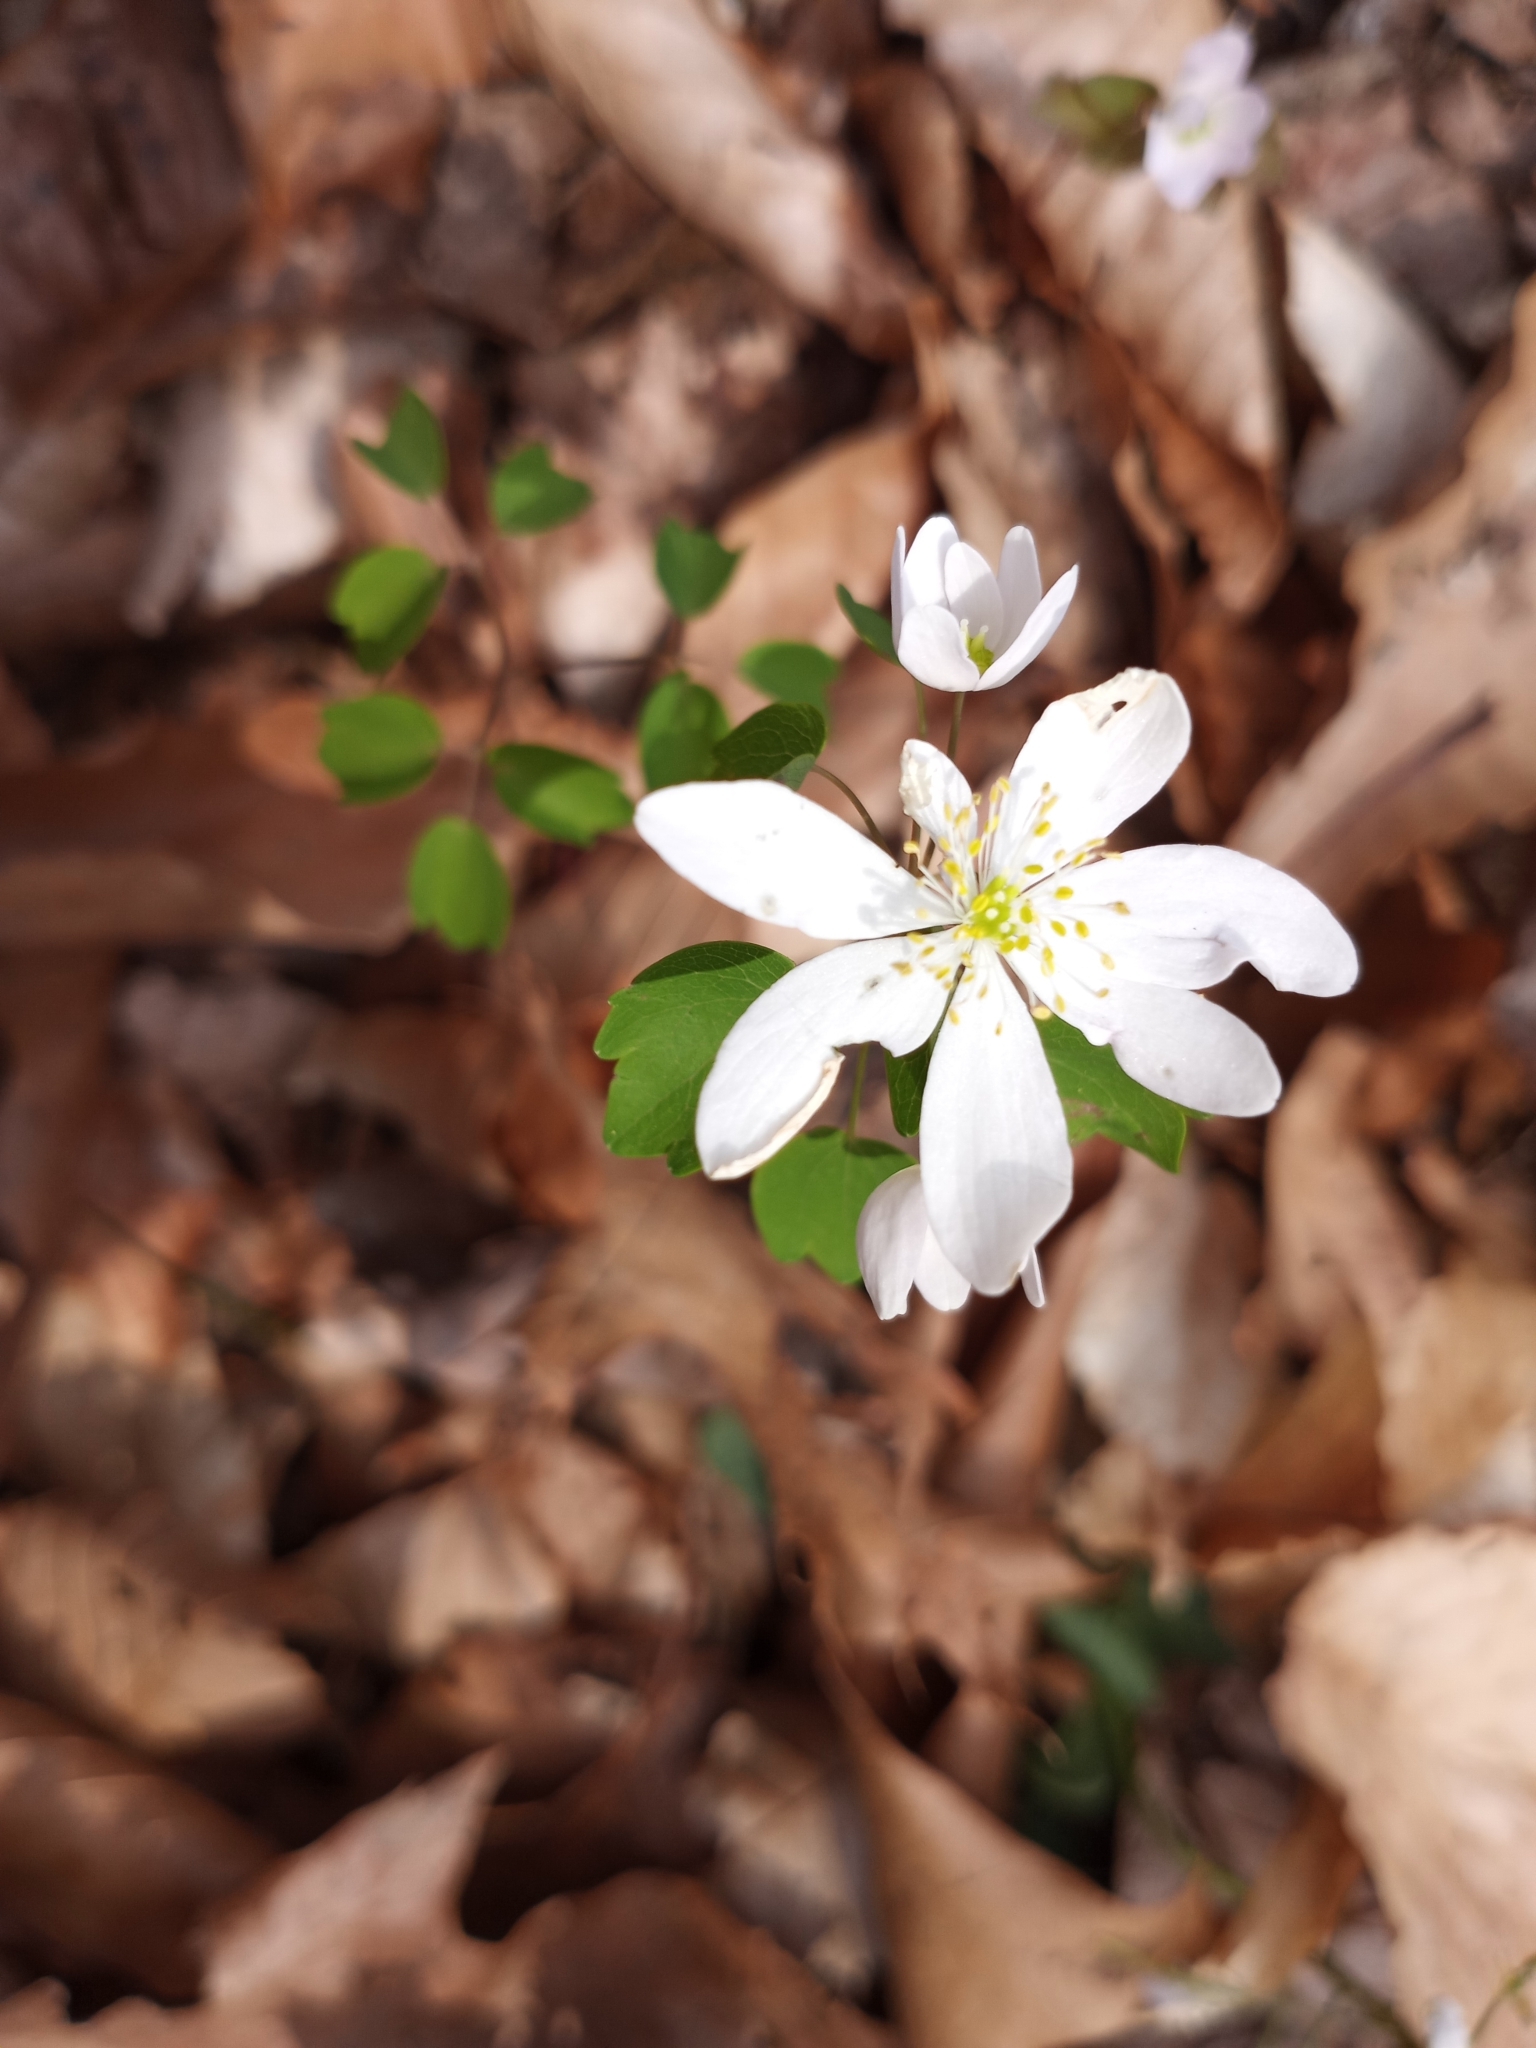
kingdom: Plantae
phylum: Tracheophyta
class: Magnoliopsida
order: Ranunculales
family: Ranunculaceae
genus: Thalictrum
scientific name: Thalictrum thalictroides
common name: Rue-anemone
